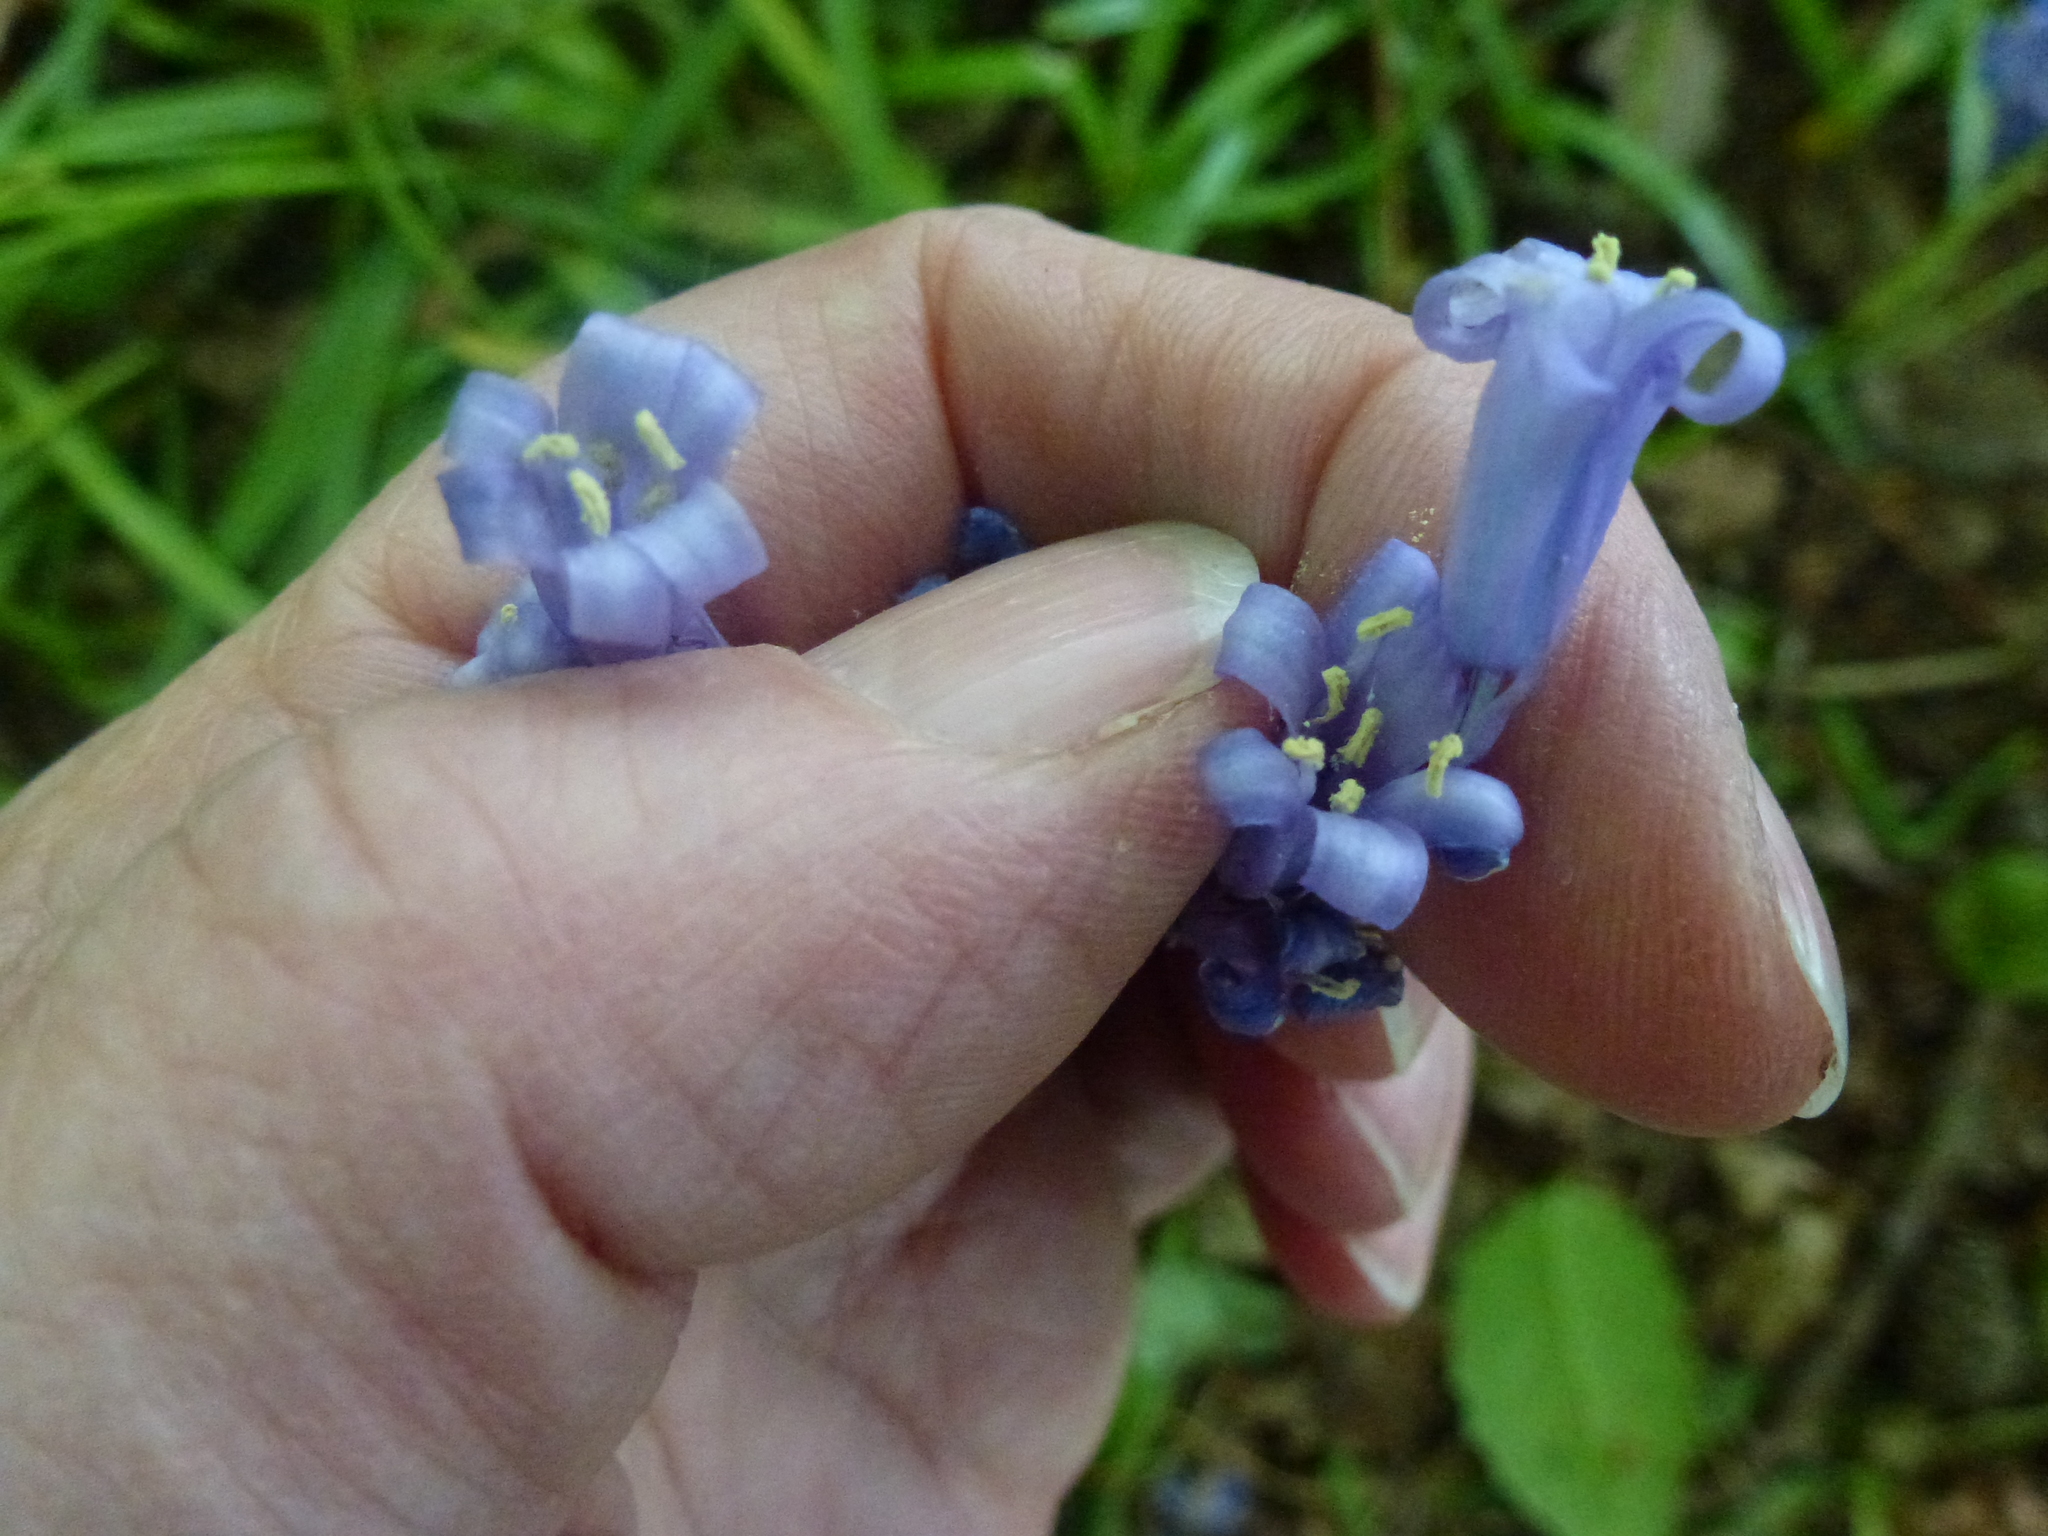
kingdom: Plantae
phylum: Tracheophyta
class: Liliopsida
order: Asparagales
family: Asparagaceae
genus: Hyacinthoides
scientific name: Hyacinthoides non-scripta
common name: Bluebell
